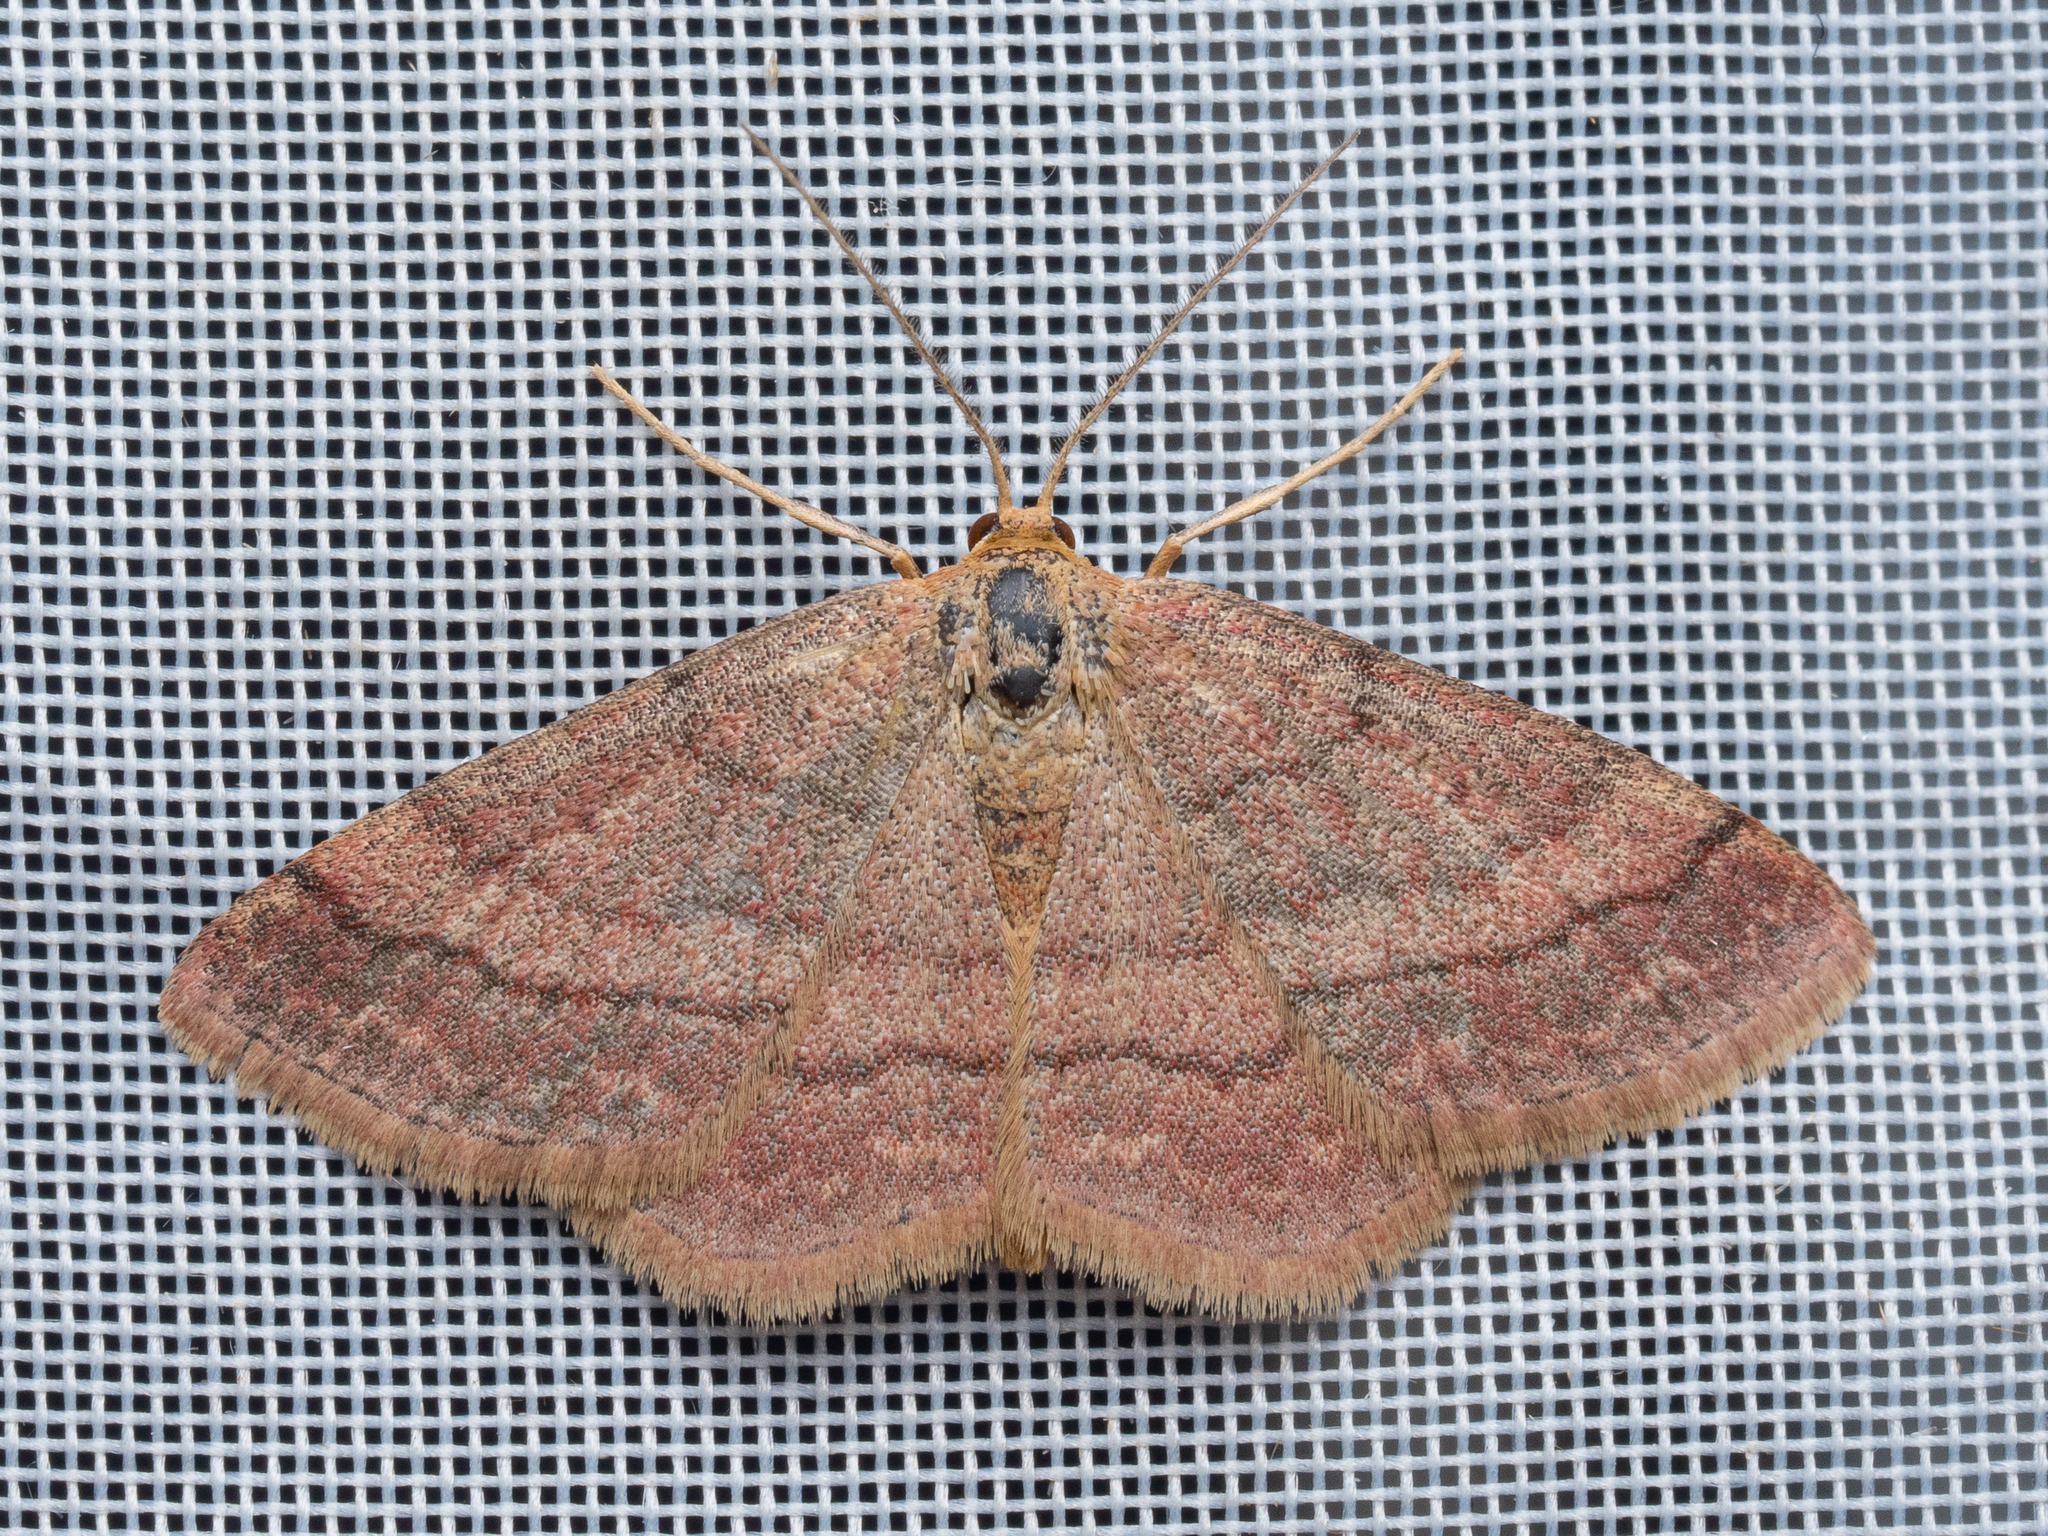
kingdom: Animalia
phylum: Arthropoda
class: Insecta
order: Lepidoptera
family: Geometridae
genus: Scopula
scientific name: Scopula rubiginata
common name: Tawny wave
